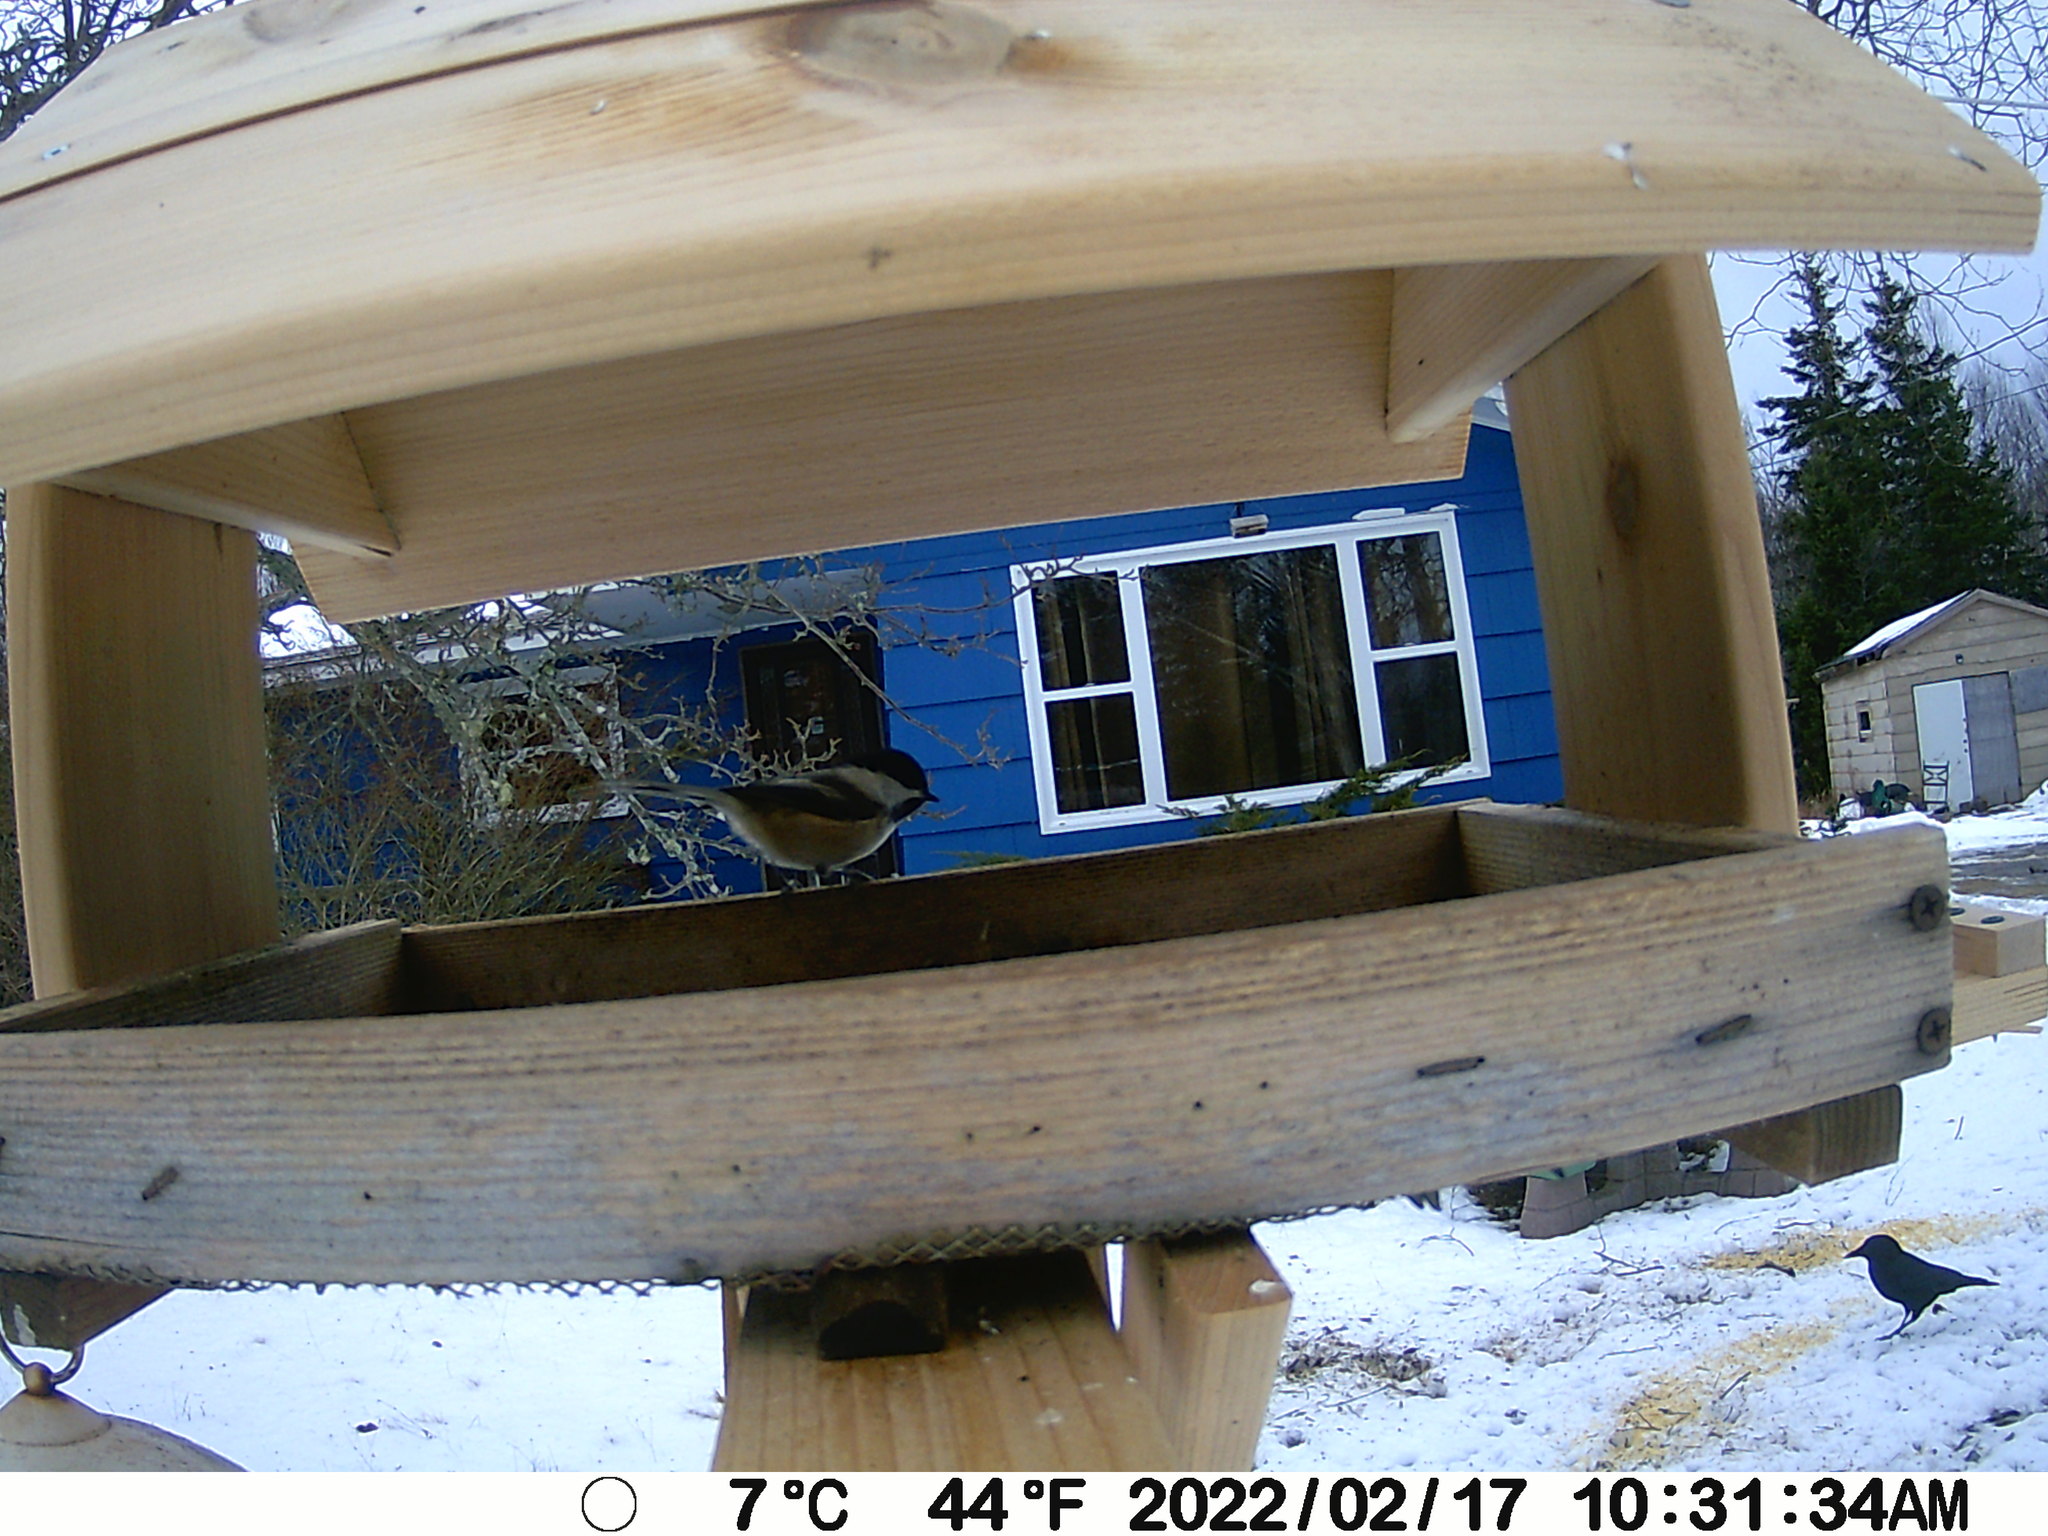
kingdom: Animalia
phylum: Chordata
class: Aves
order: Passeriformes
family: Corvidae
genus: Corvus
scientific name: Corvus brachyrhynchos
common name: American crow
